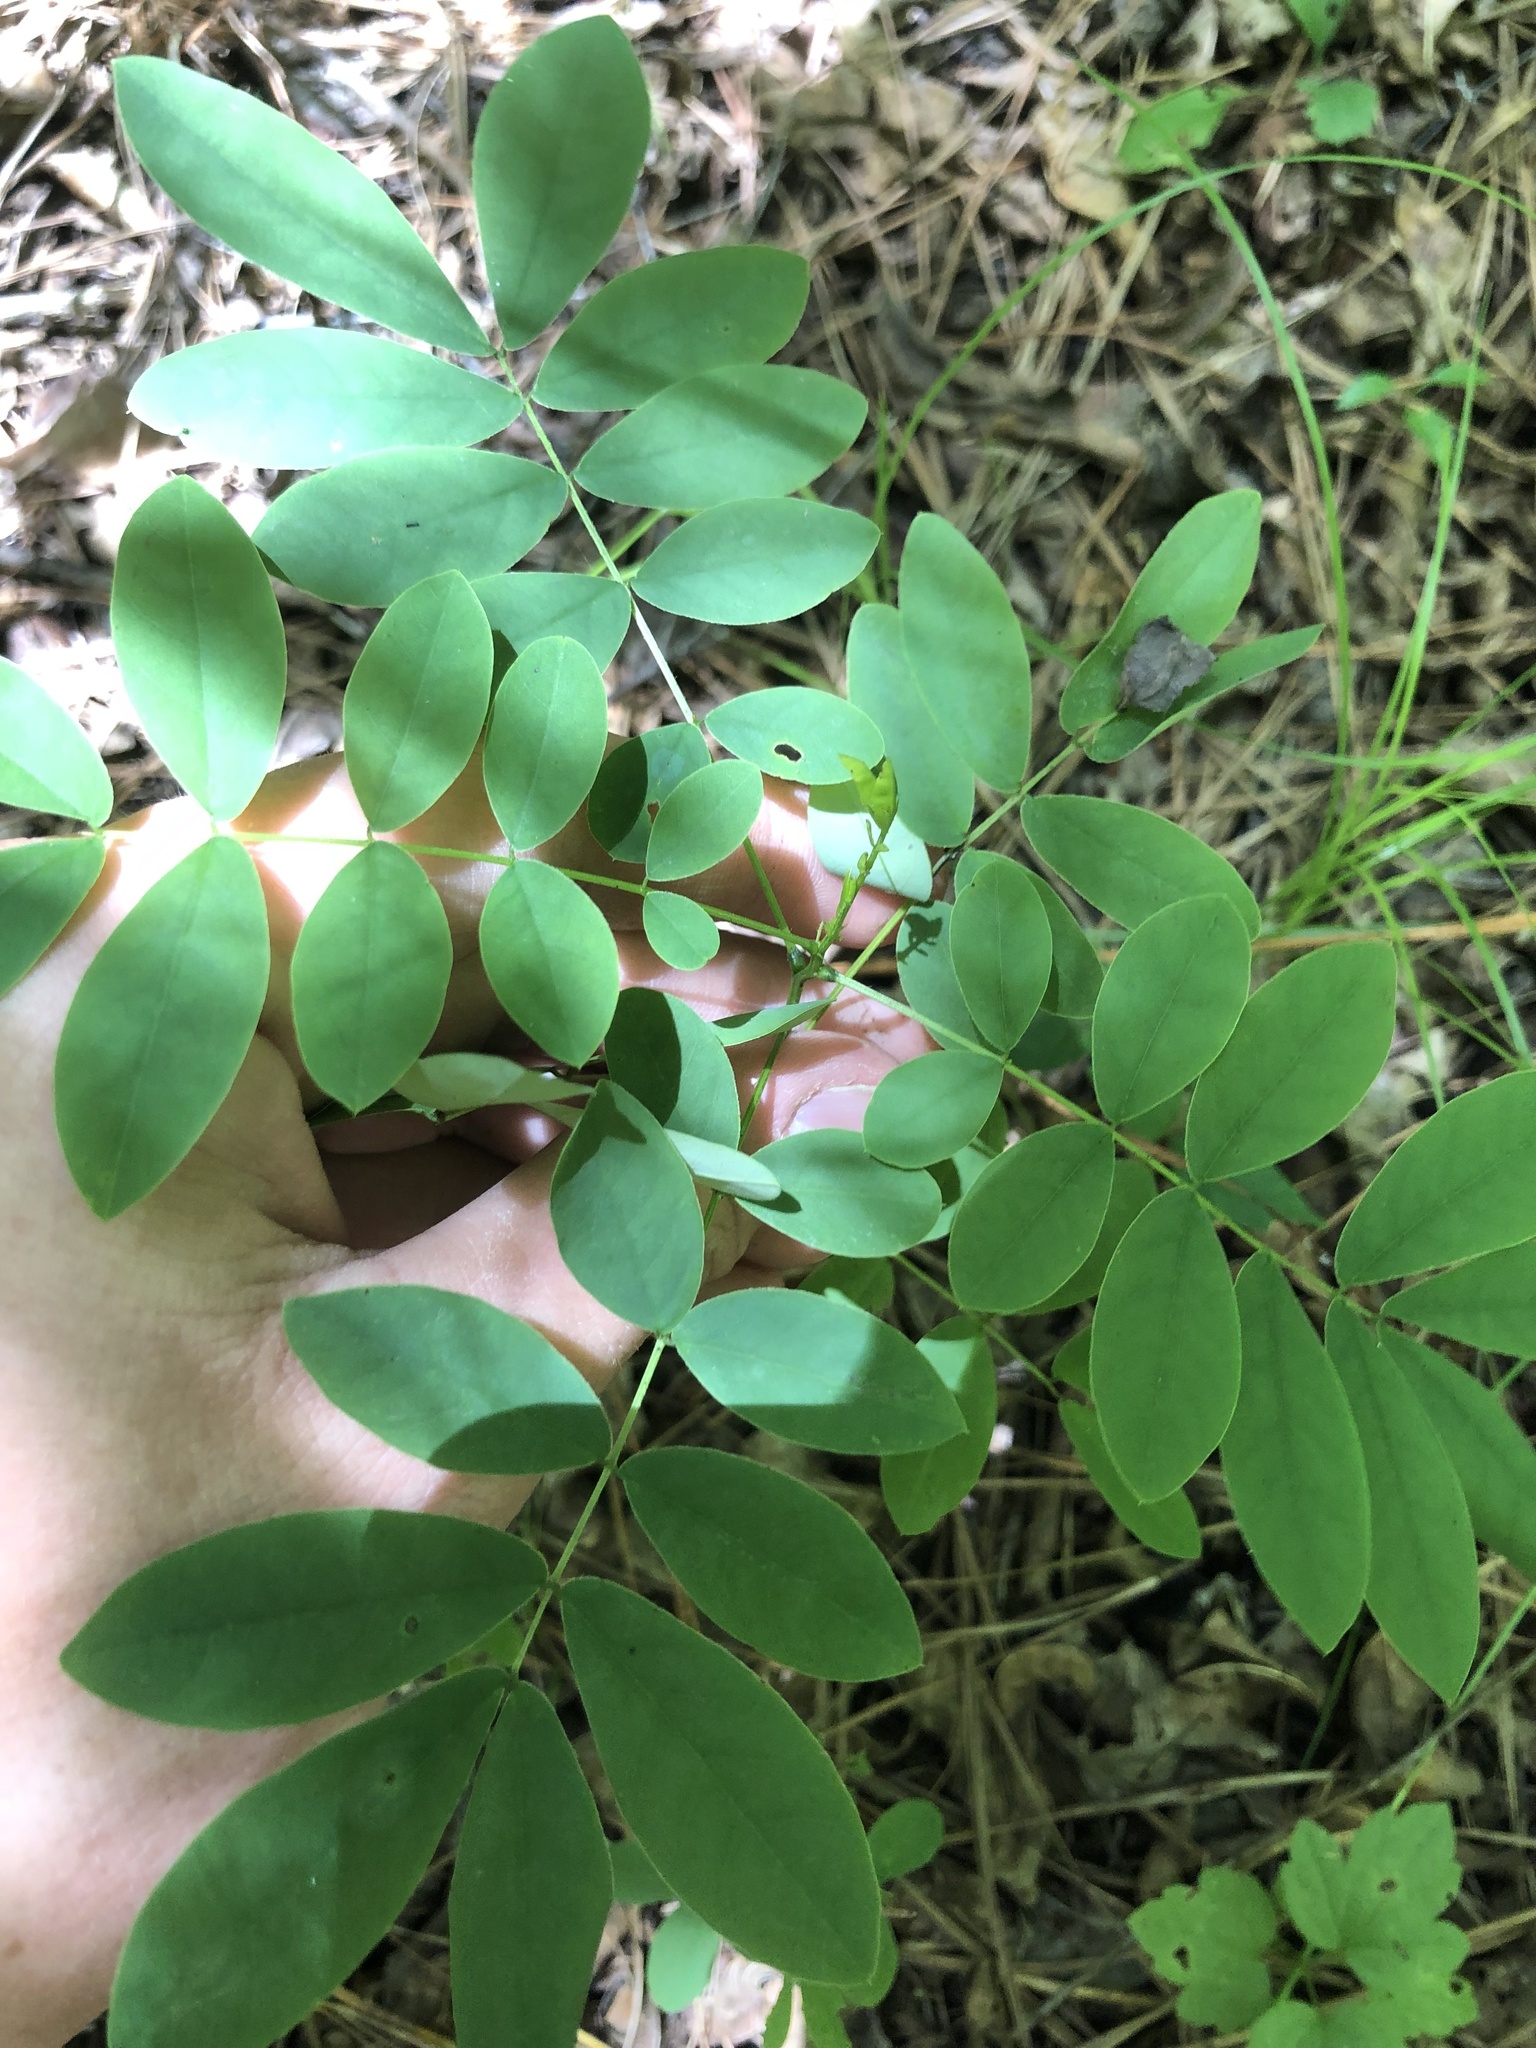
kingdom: Plantae
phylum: Tracheophyta
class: Magnoliopsida
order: Fabales
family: Fabaceae
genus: Senna
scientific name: Senna marilandica
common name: American senna
